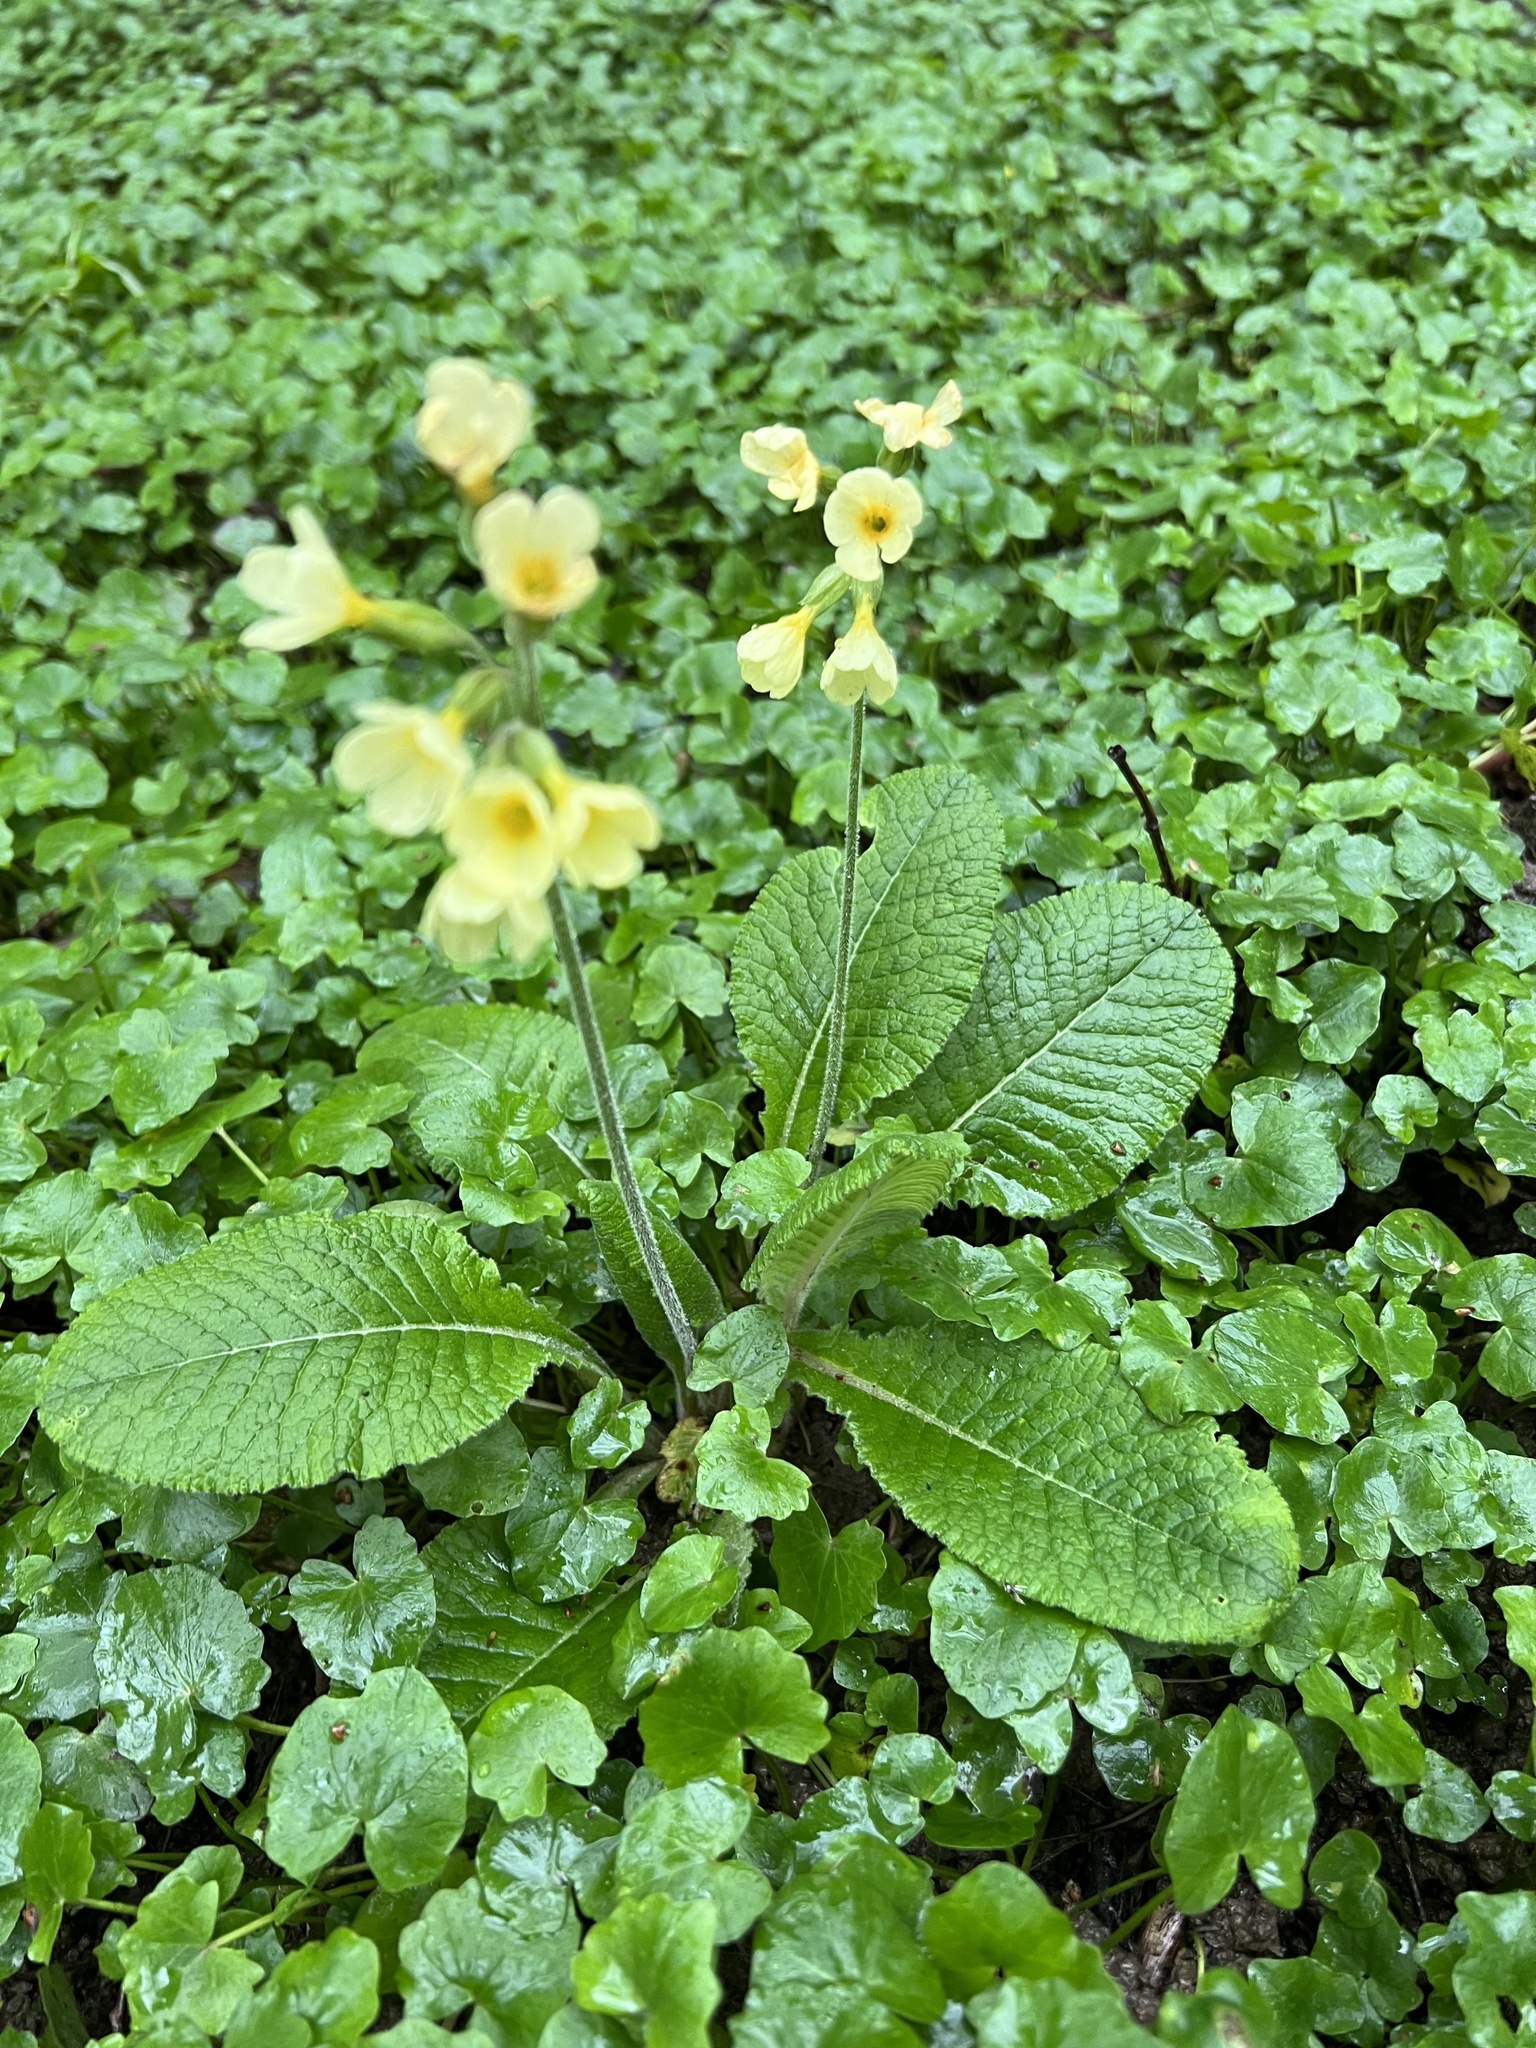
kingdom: Plantae
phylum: Tracheophyta
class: Magnoliopsida
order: Ericales
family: Primulaceae
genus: Primula
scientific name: Primula elatior
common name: Oxlip
